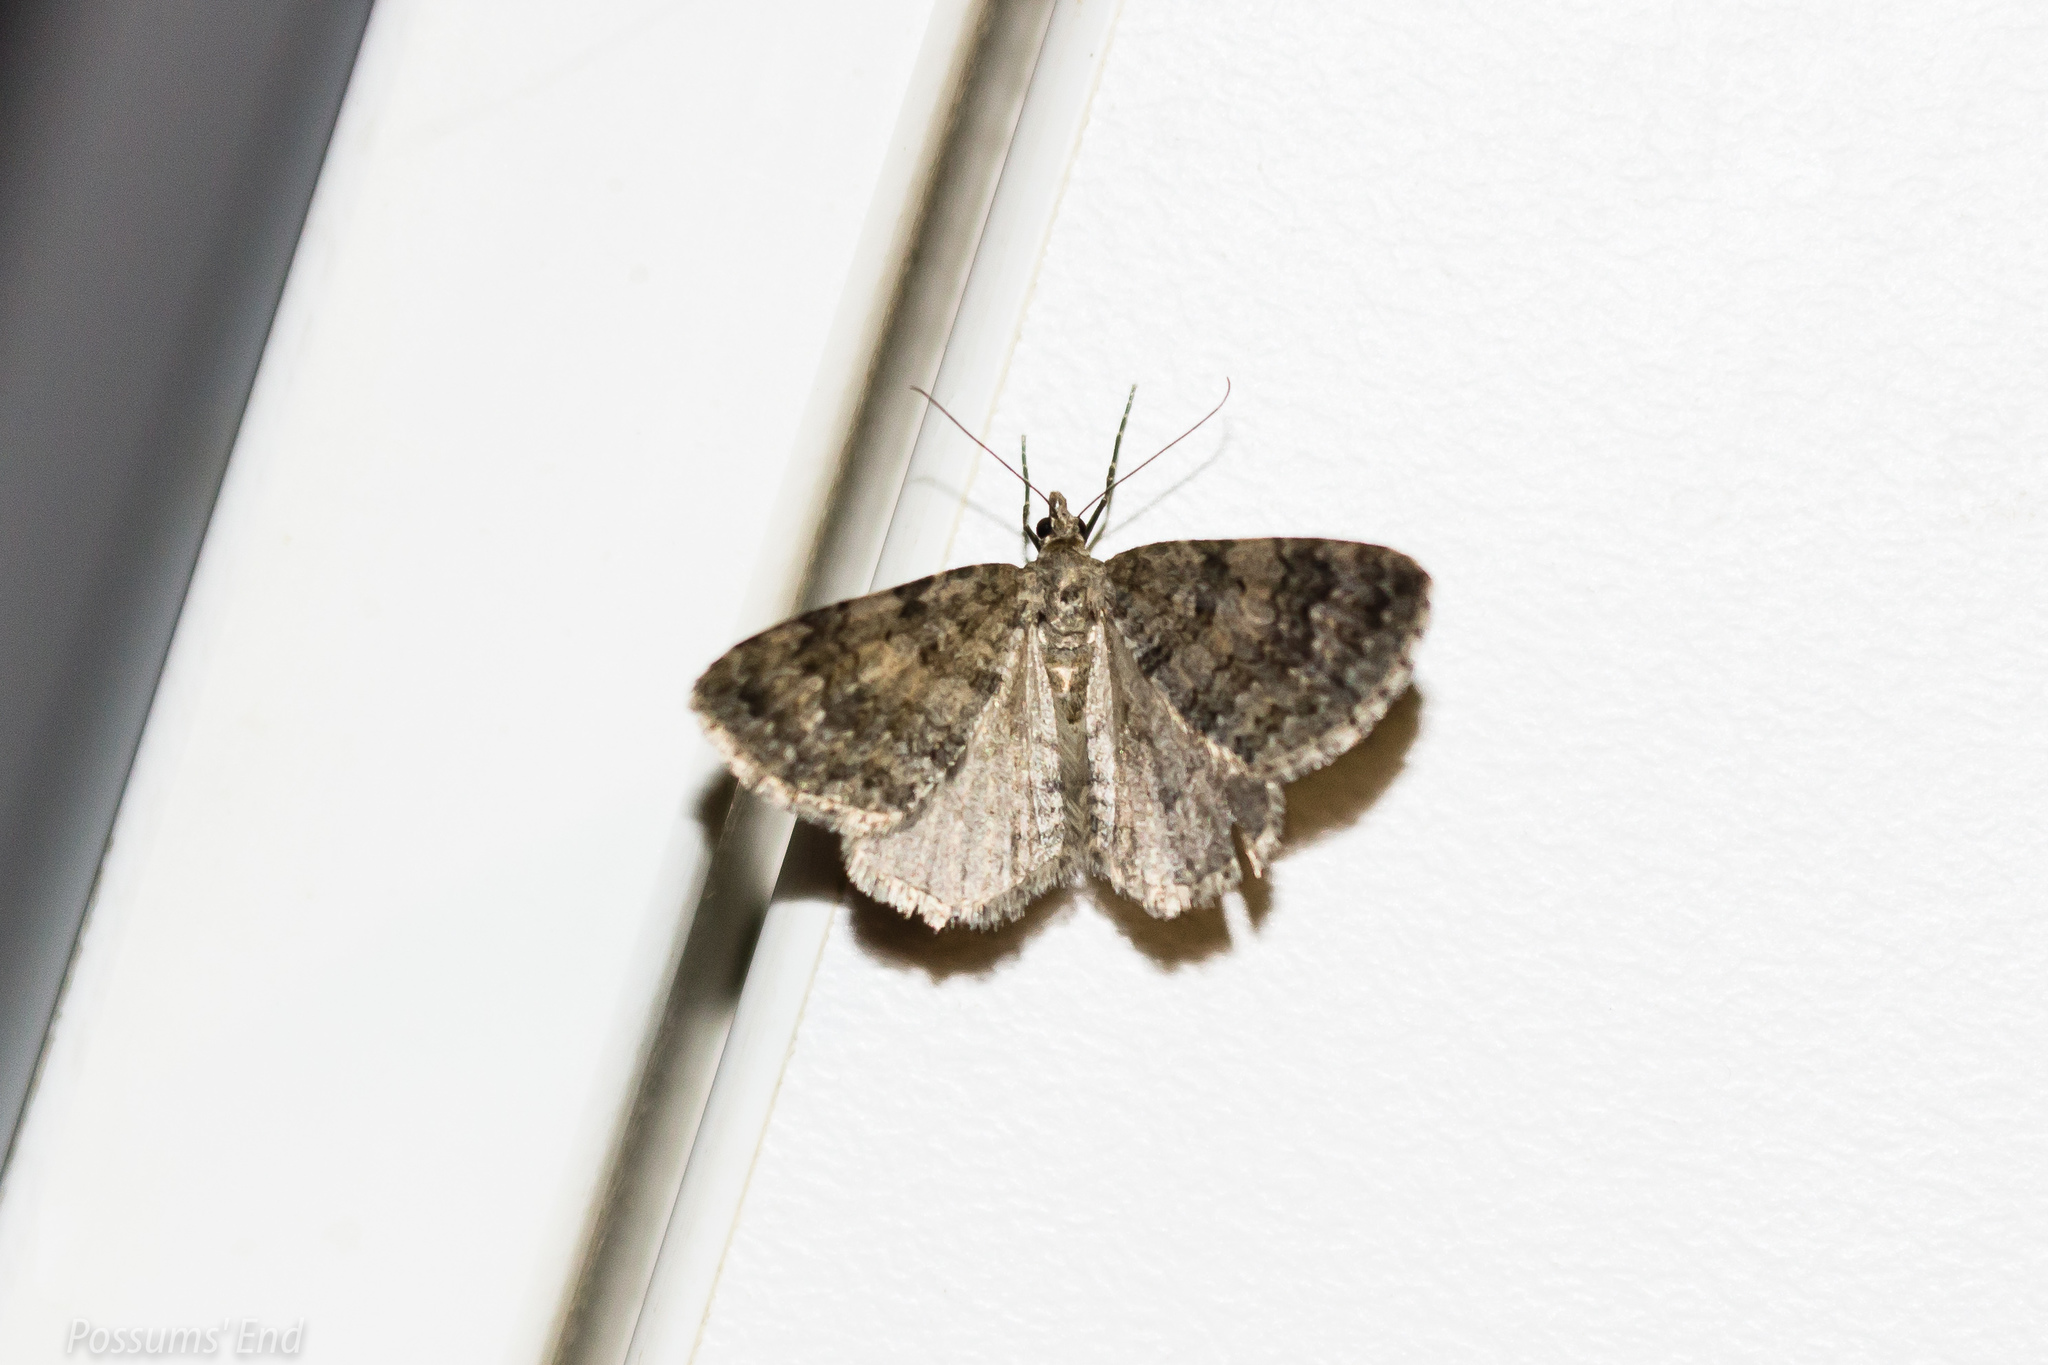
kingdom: Animalia
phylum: Arthropoda
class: Insecta
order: Lepidoptera
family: Geometridae
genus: Helastia
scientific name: Helastia corcularia
